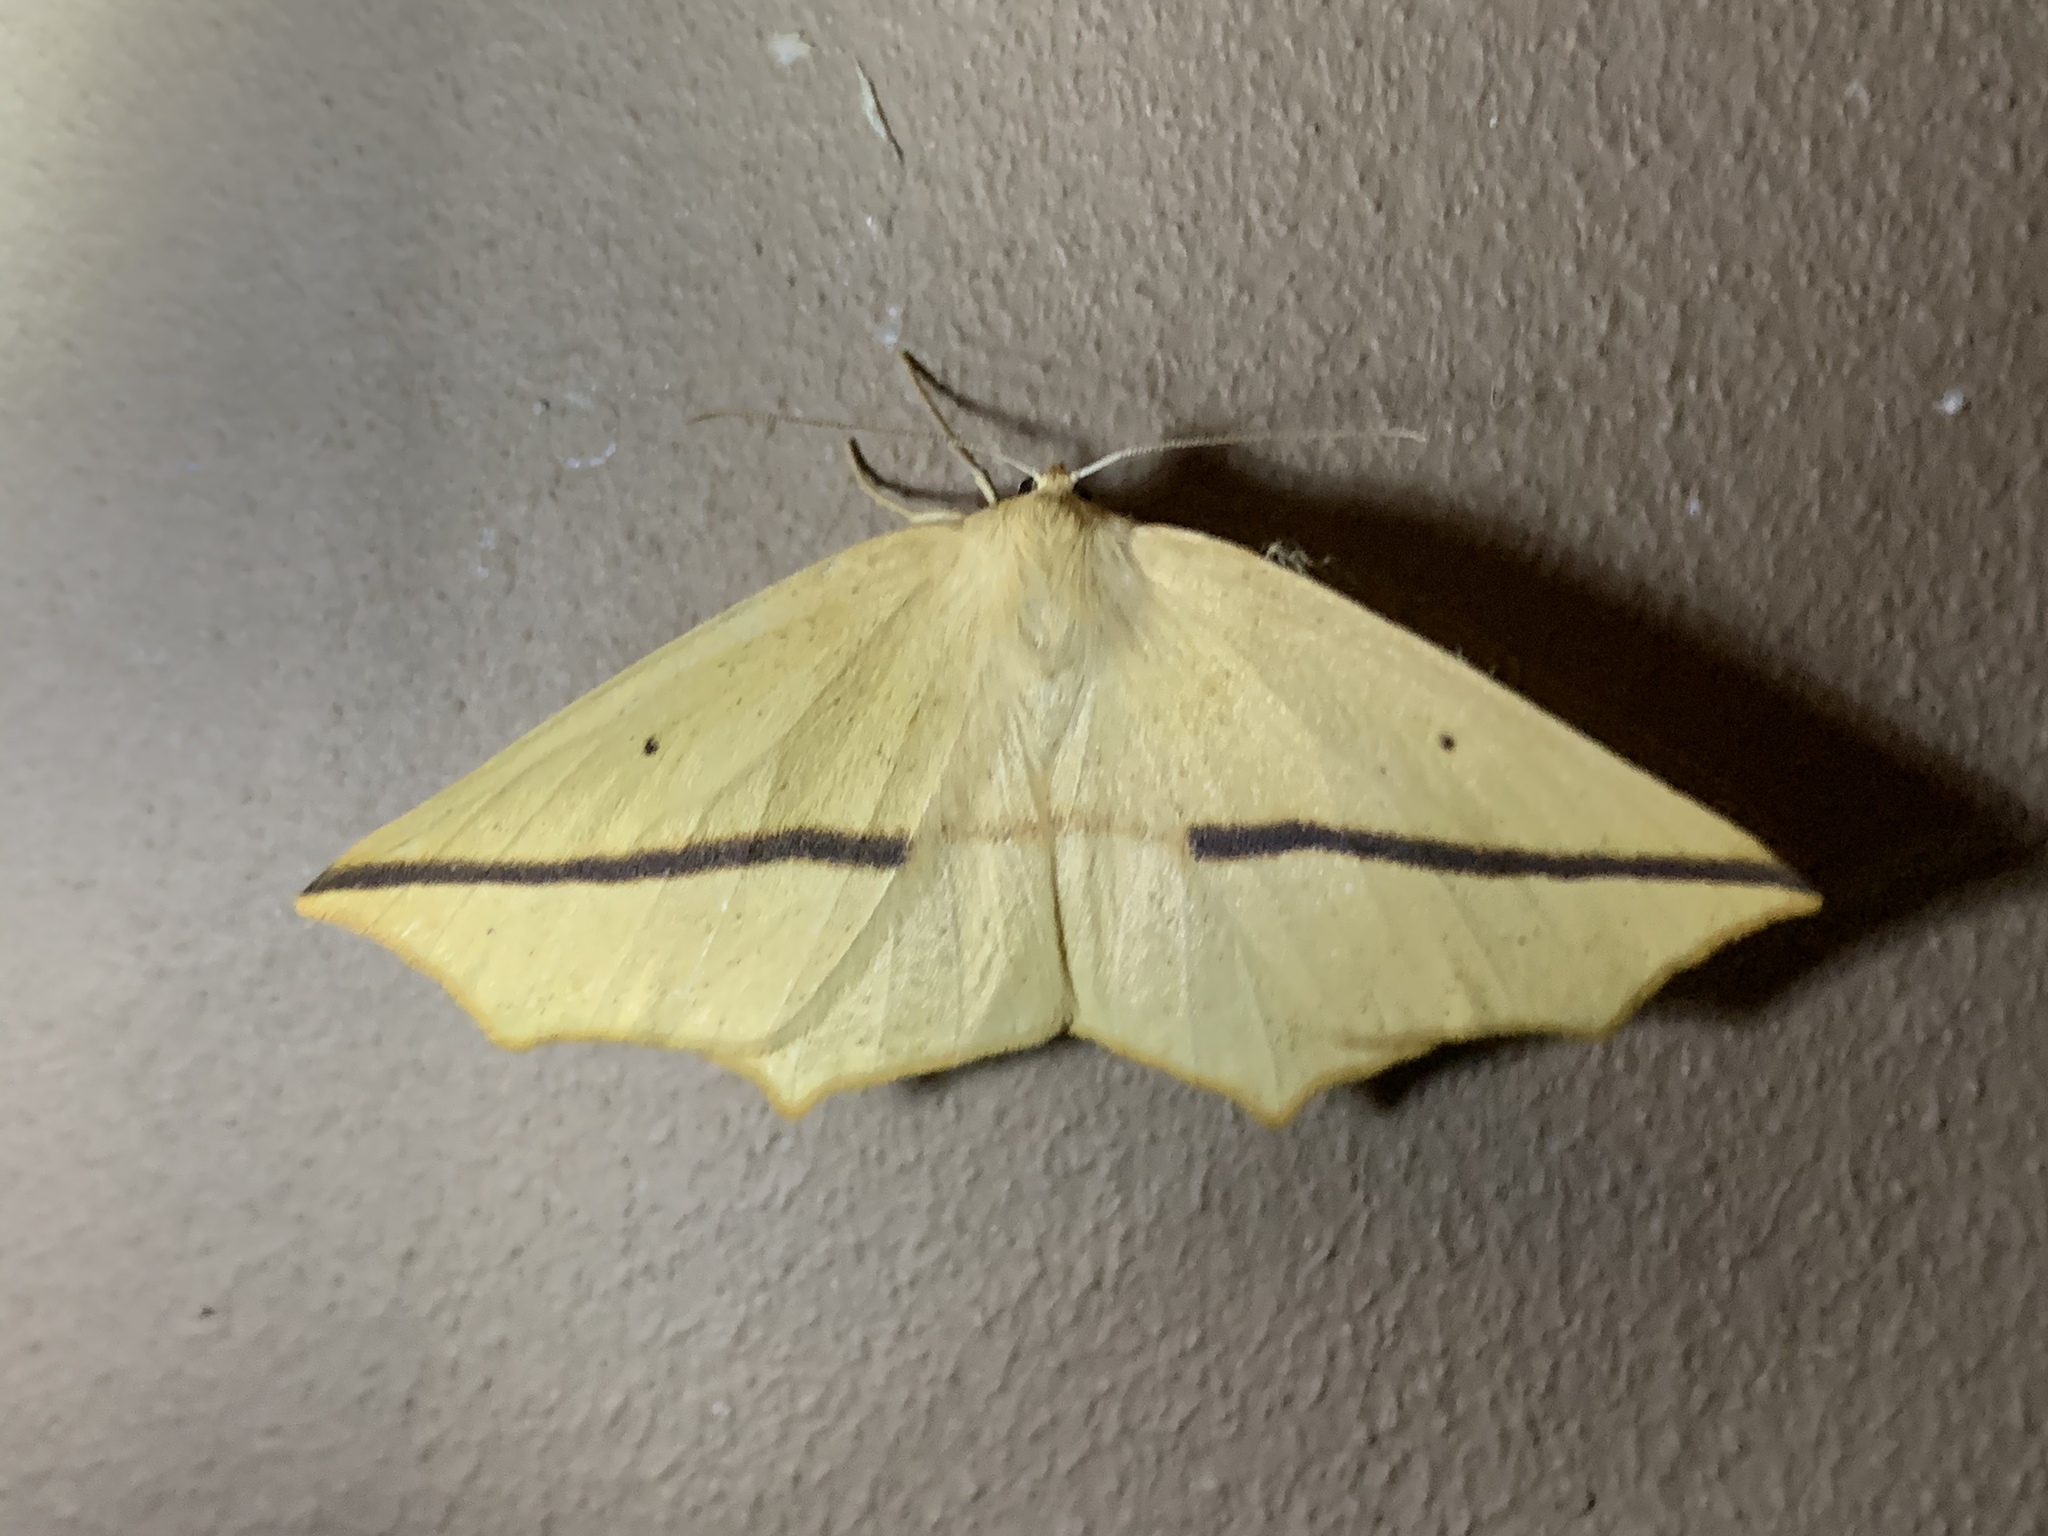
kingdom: Animalia
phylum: Arthropoda
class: Insecta
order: Lepidoptera
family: Geometridae
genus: Tetracis
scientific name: Tetracis crocallata
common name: Yellow slant-line
